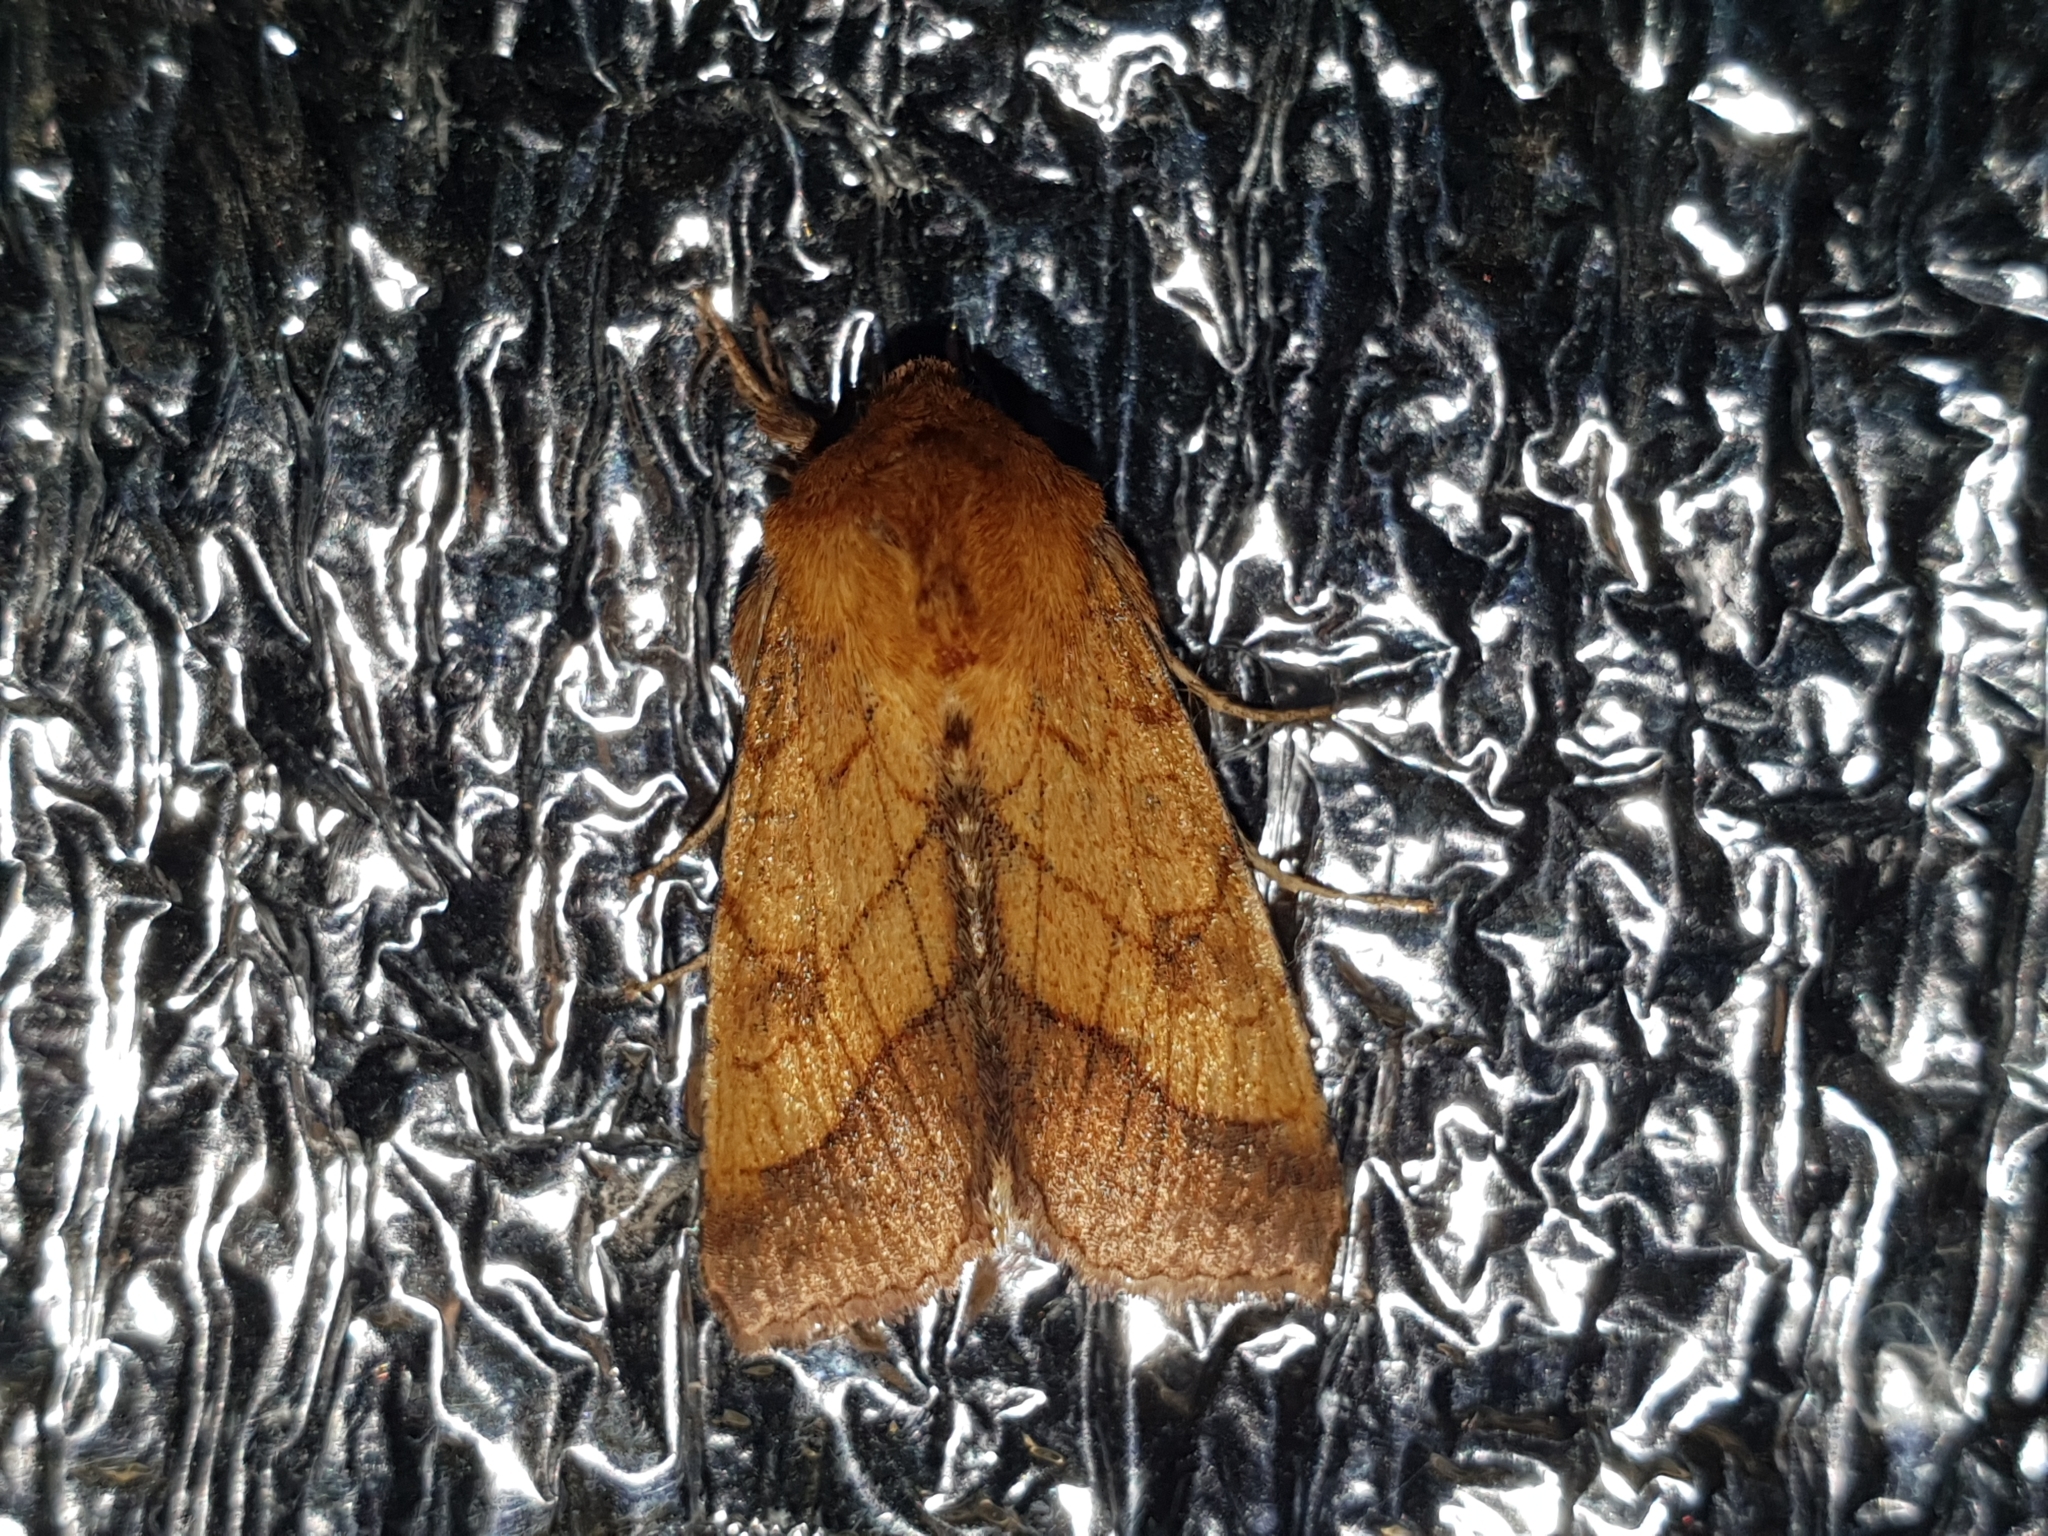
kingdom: Animalia
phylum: Arthropoda
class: Insecta
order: Lepidoptera
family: Noctuidae
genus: Pyrrhia
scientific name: Pyrrhia umbra
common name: Bordered sallow
